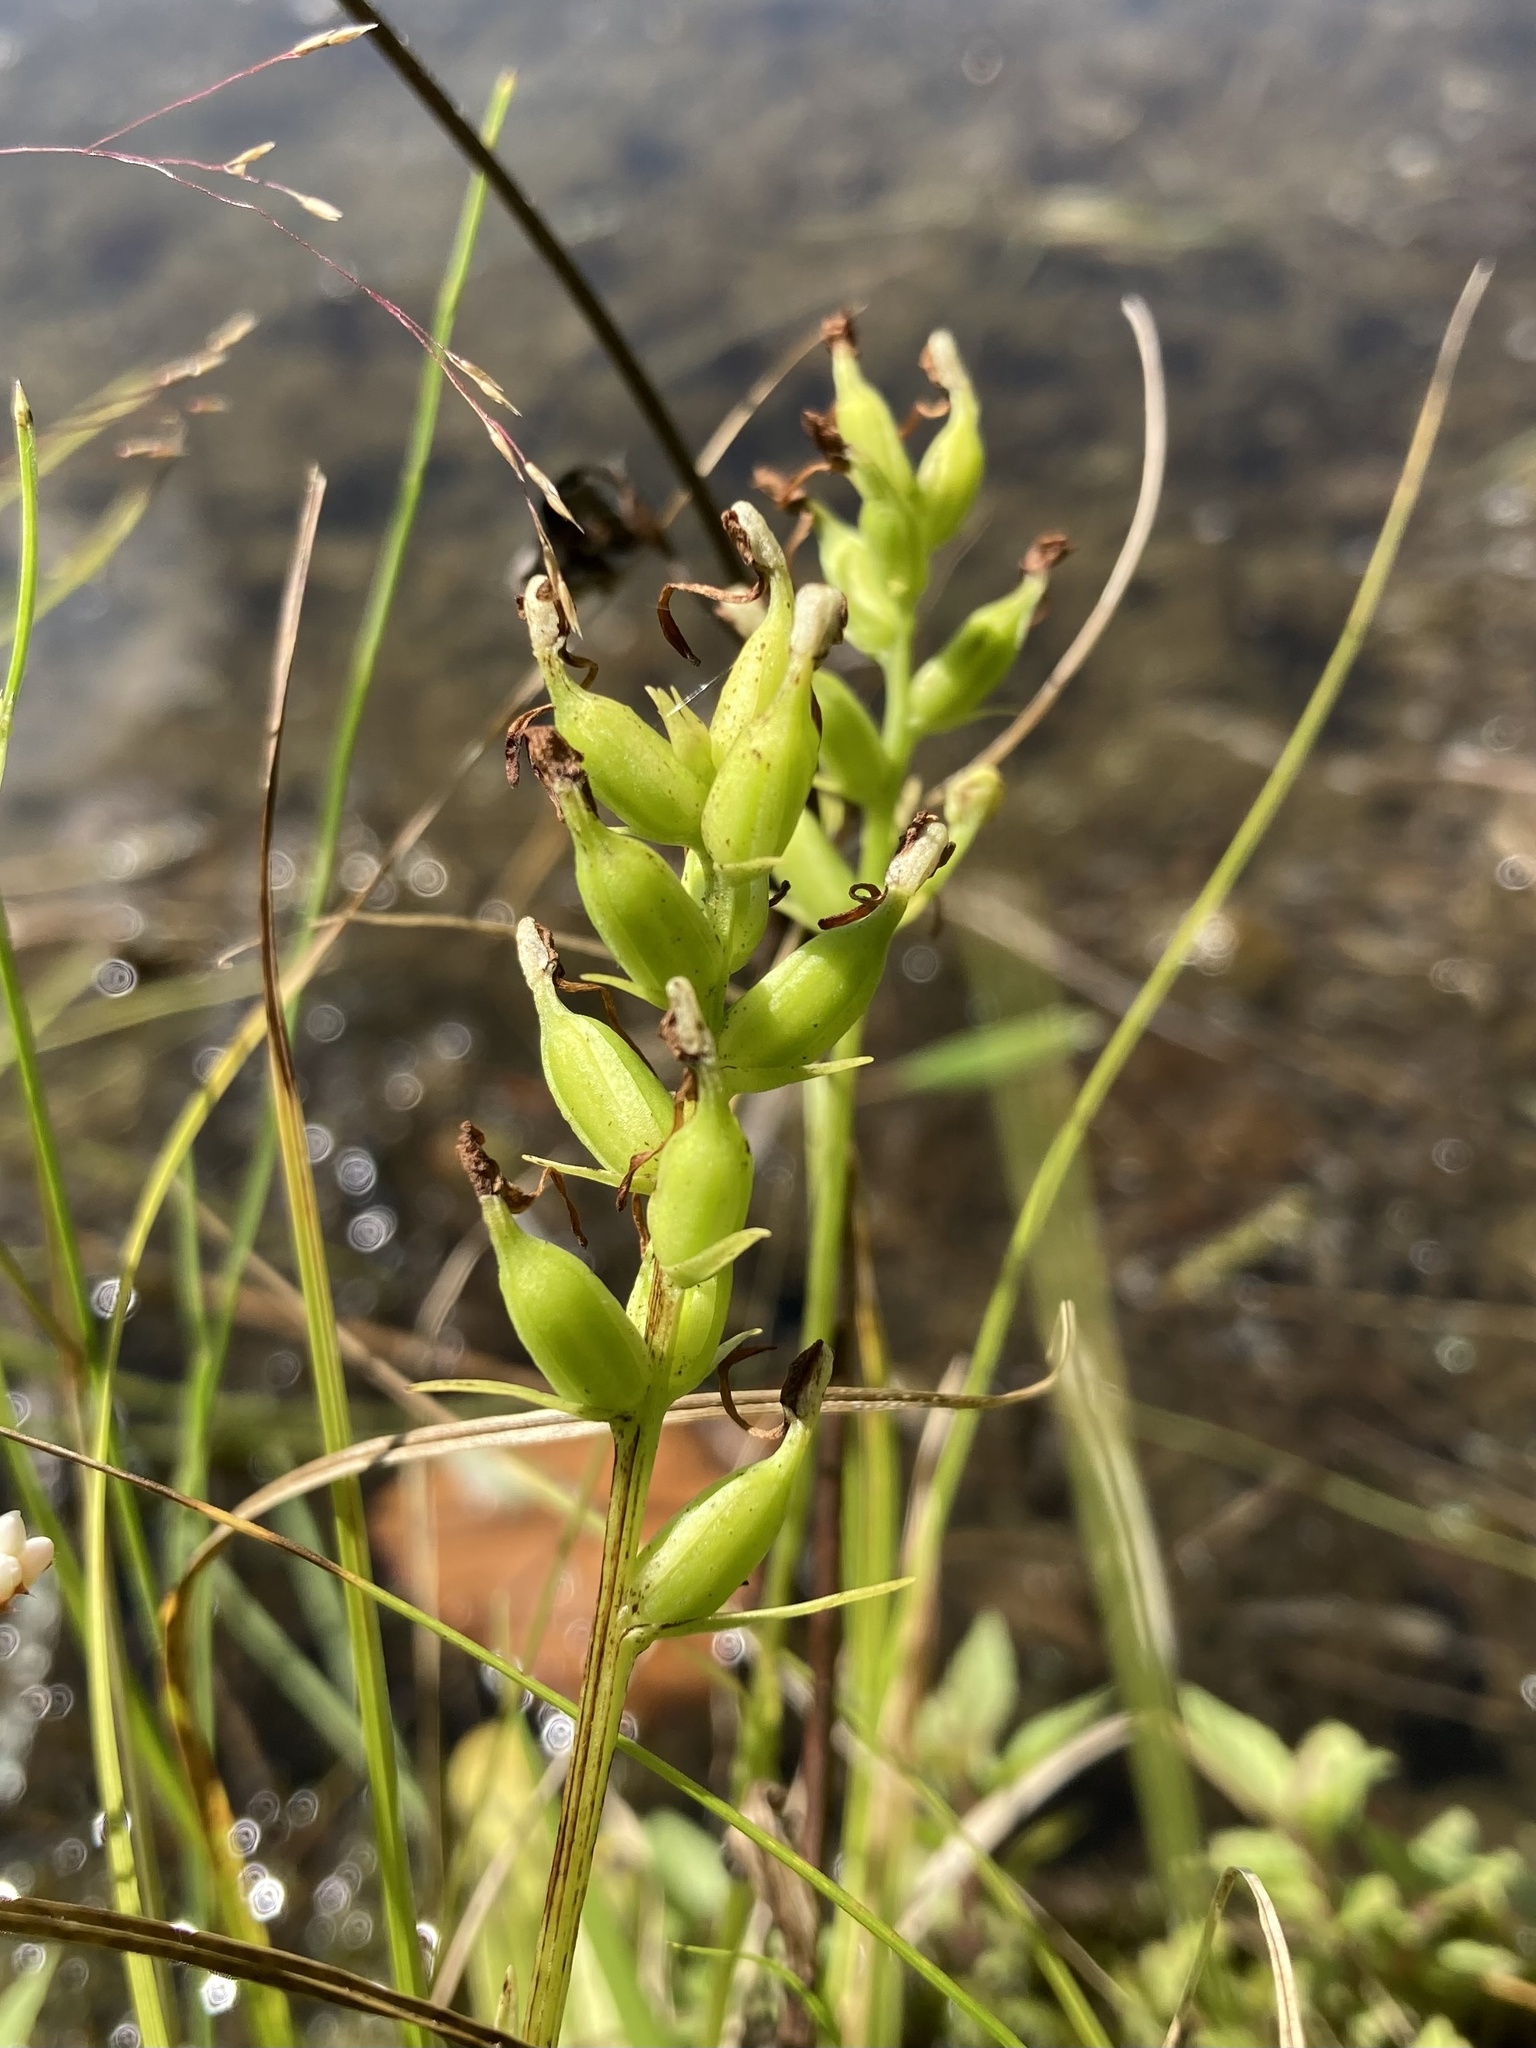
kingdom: Plantae
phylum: Tracheophyta
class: Liliopsida
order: Asparagales
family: Orchidaceae
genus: Platanthera
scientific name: Platanthera clavellata
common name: Club-spur orchid
